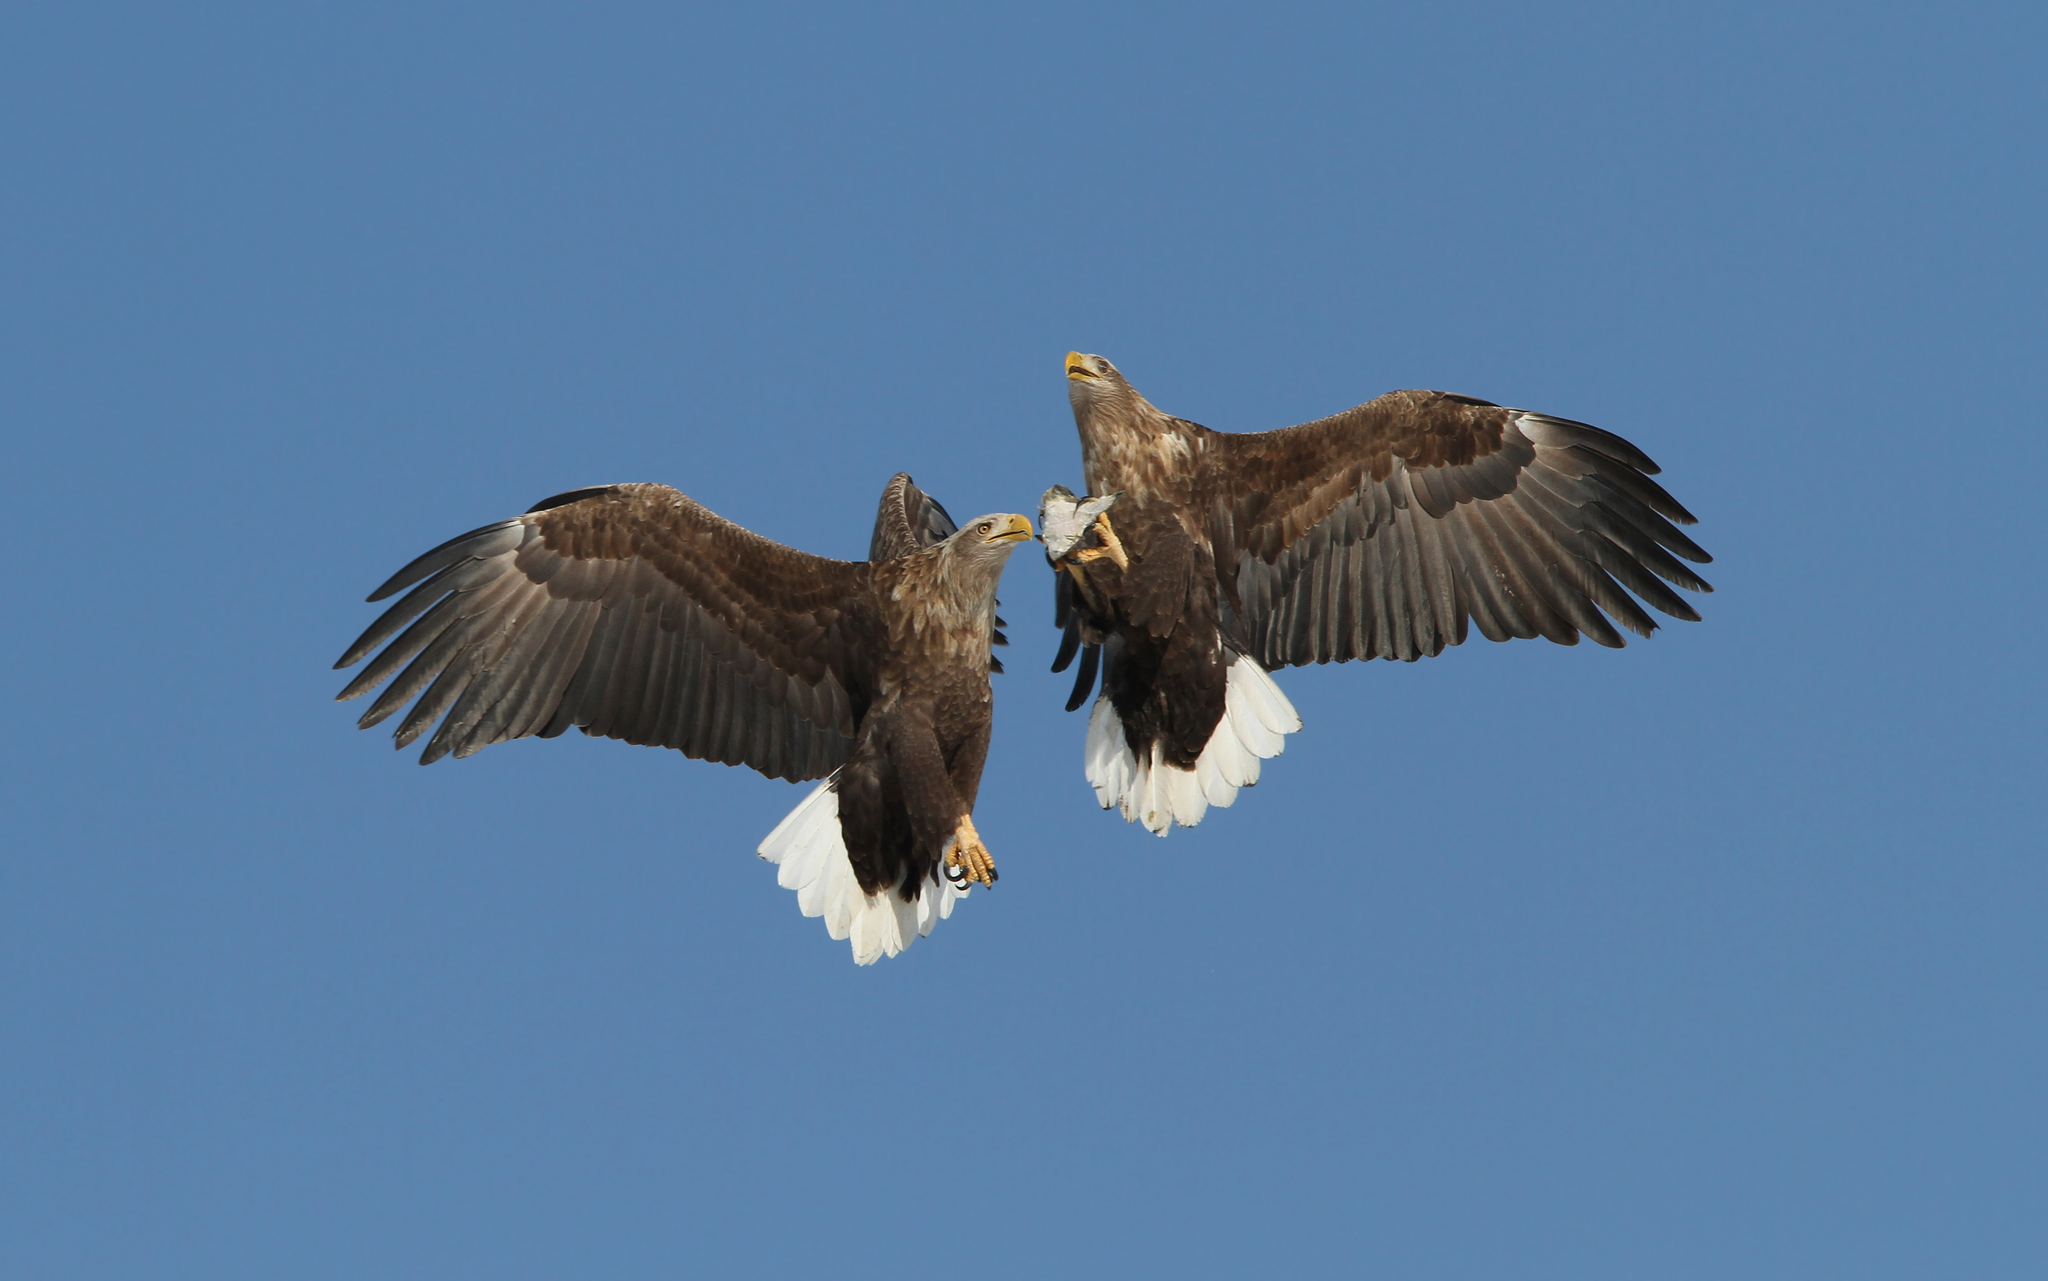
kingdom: Animalia
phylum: Chordata
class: Aves
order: Accipitriformes
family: Accipitridae
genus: Haliaeetus
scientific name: Haliaeetus albicilla
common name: White-tailed eagle
